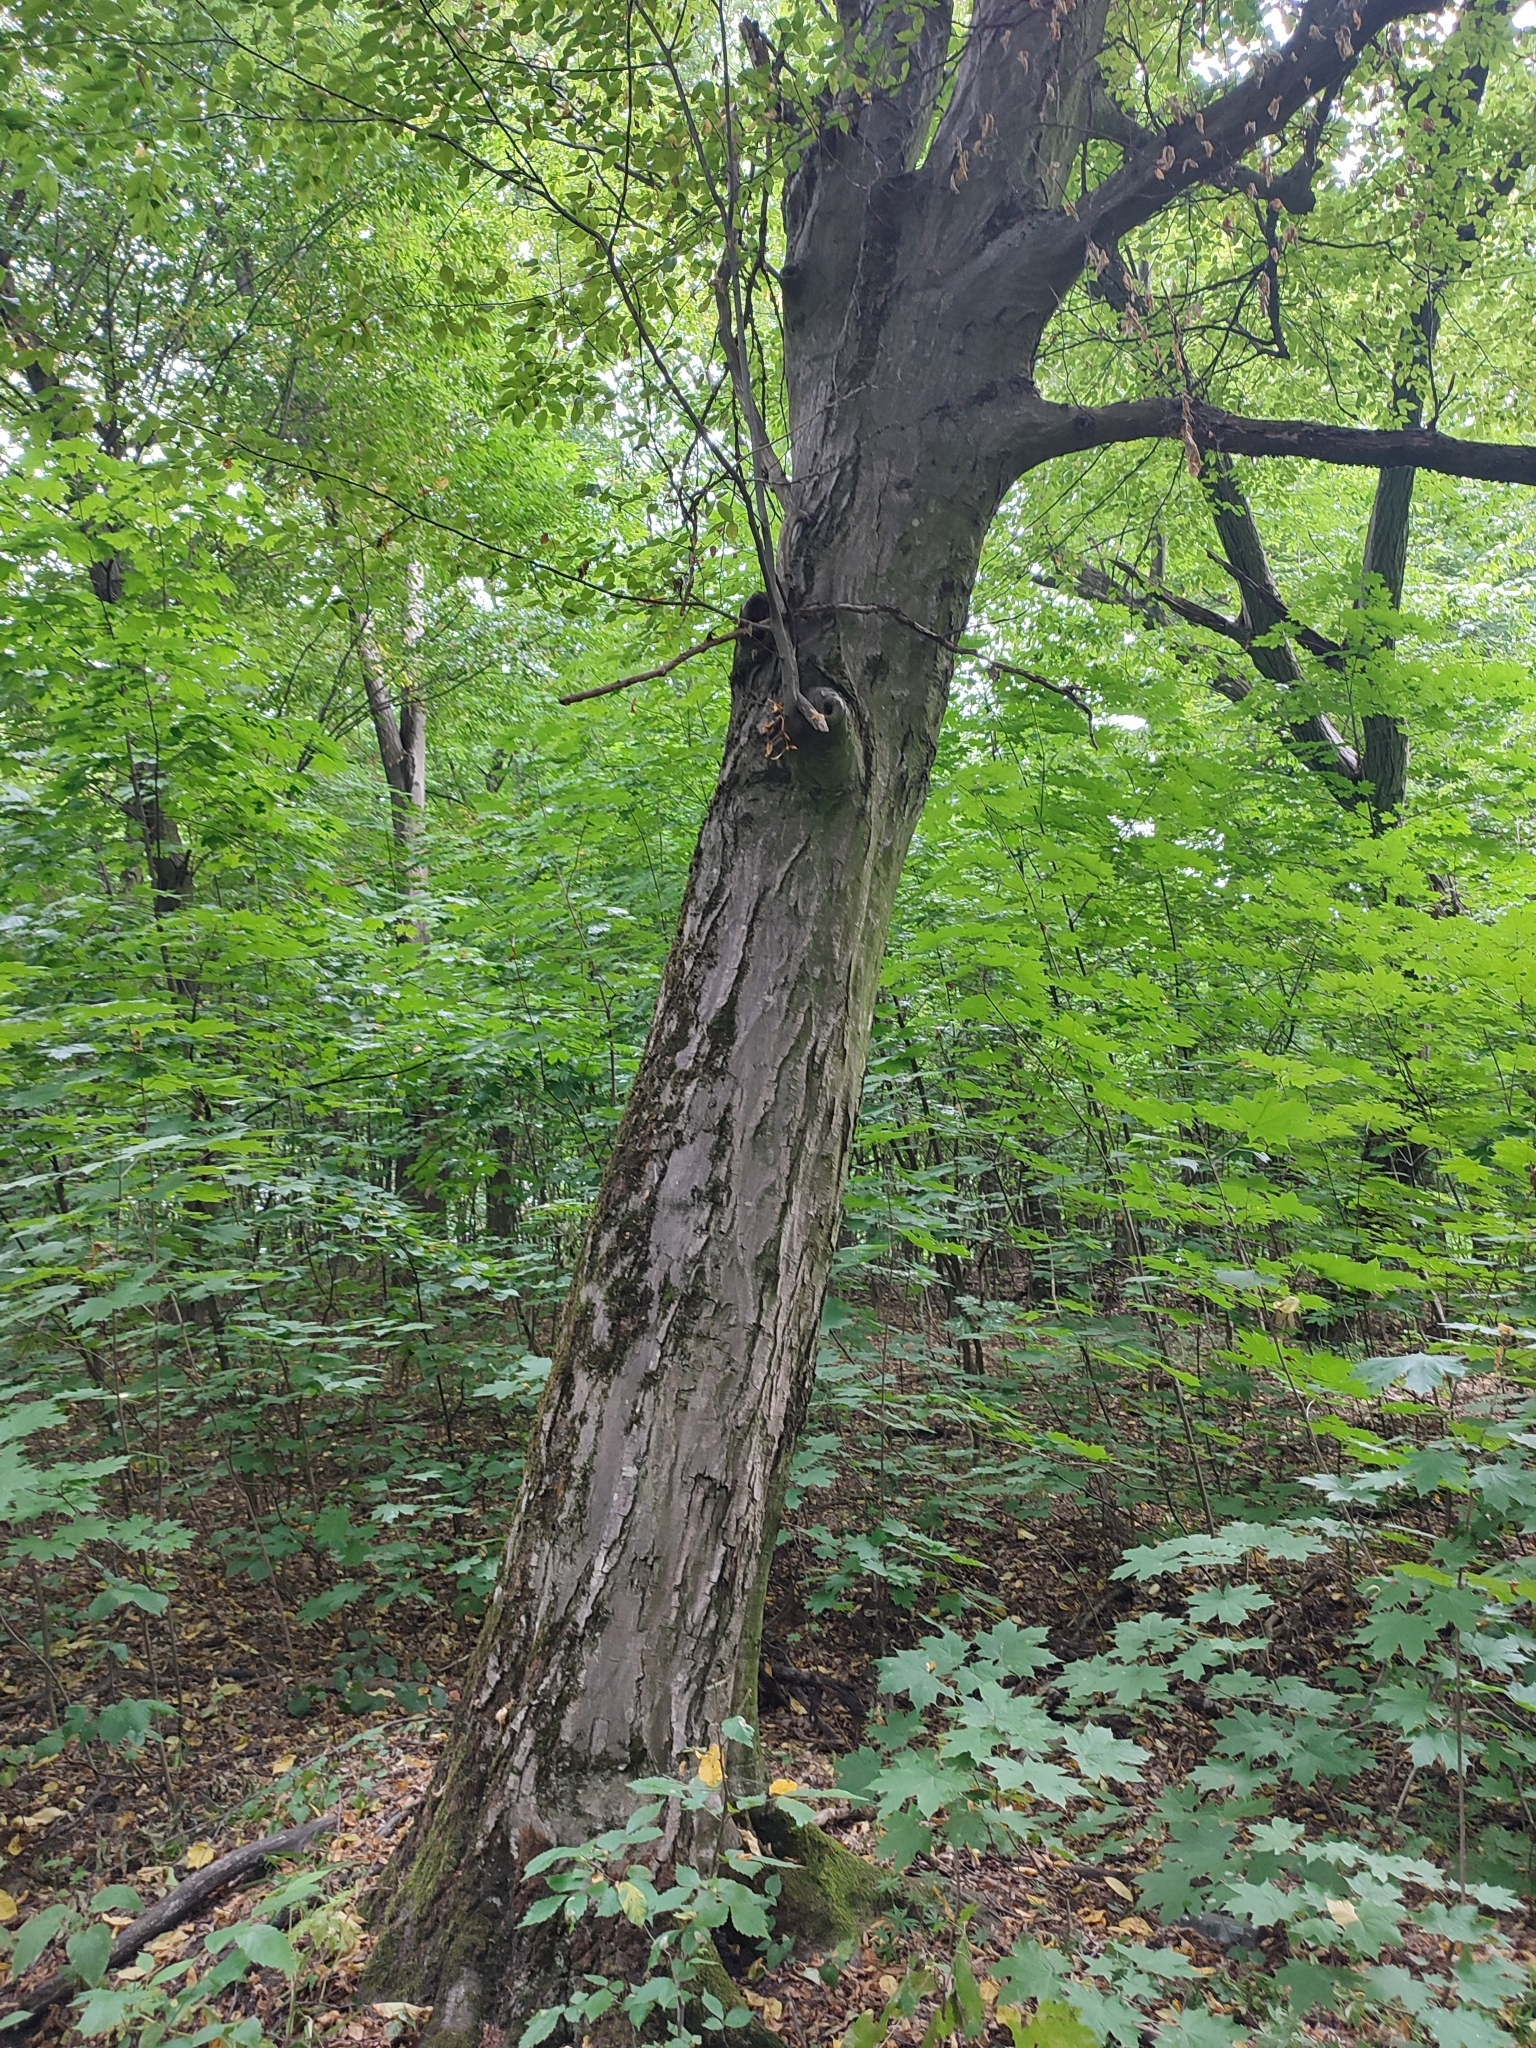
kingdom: Plantae
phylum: Tracheophyta
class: Magnoliopsida
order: Fagales
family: Betulaceae
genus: Carpinus
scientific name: Carpinus betulus
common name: Hornbeam
